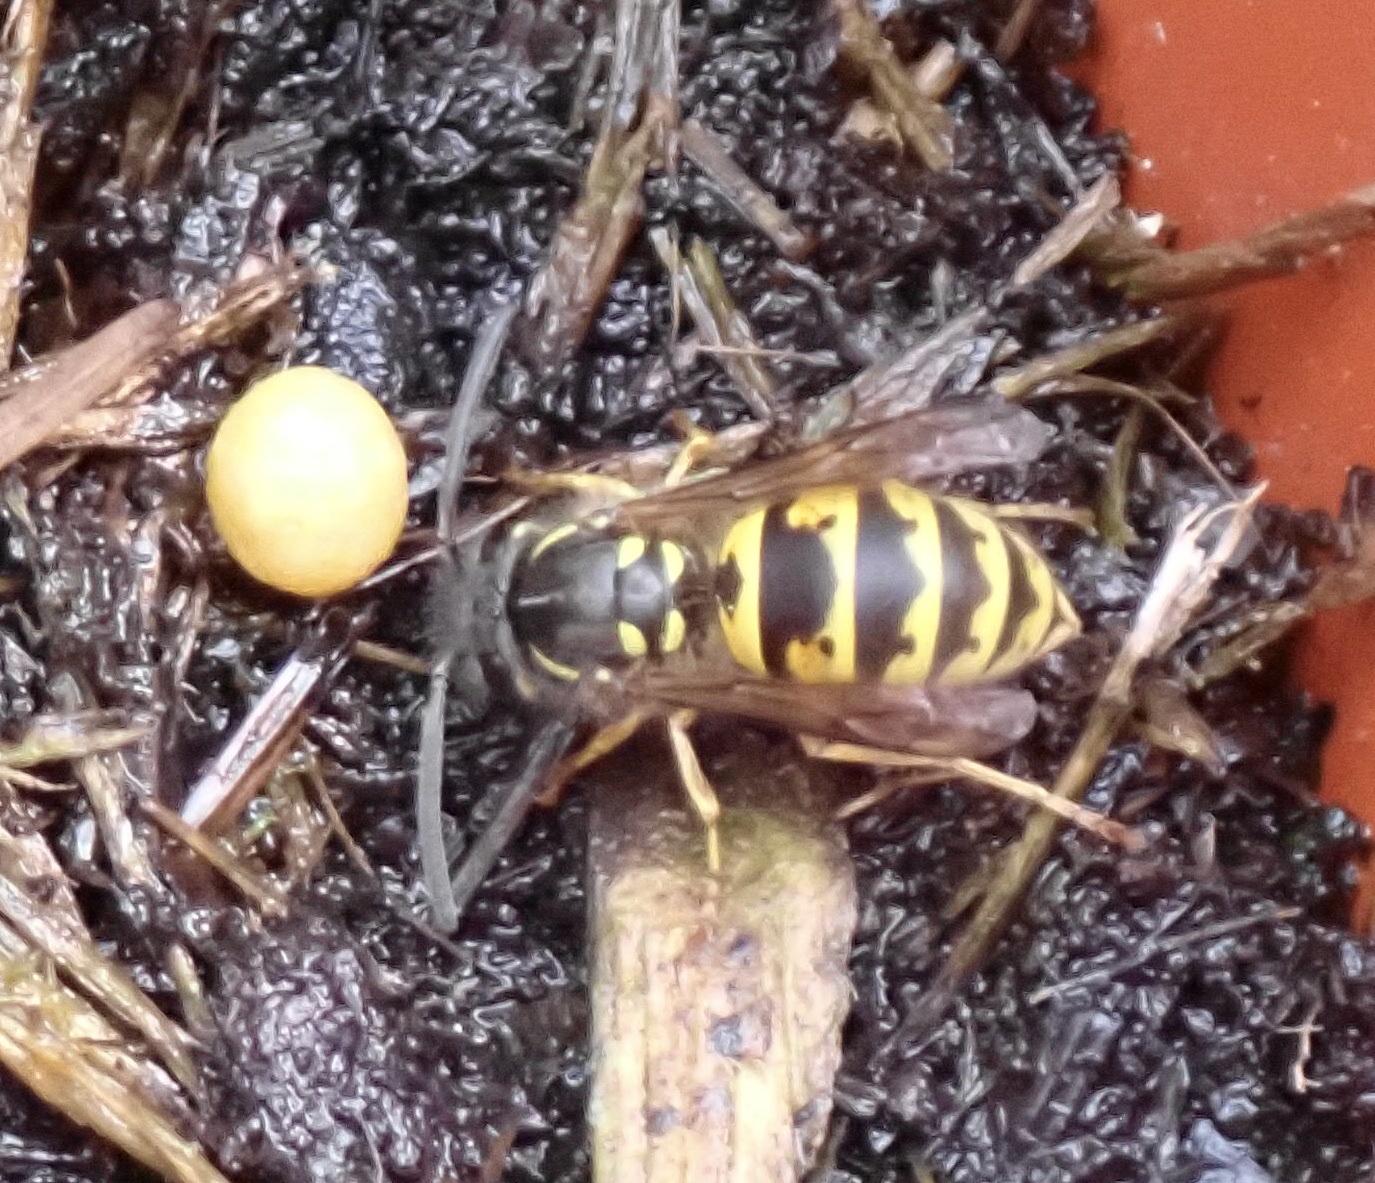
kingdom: Animalia
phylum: Arthropoda
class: Insecta
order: Hymenoptera
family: Vespidae
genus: Vespula
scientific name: Vespula vulgaris
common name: Common wasp
